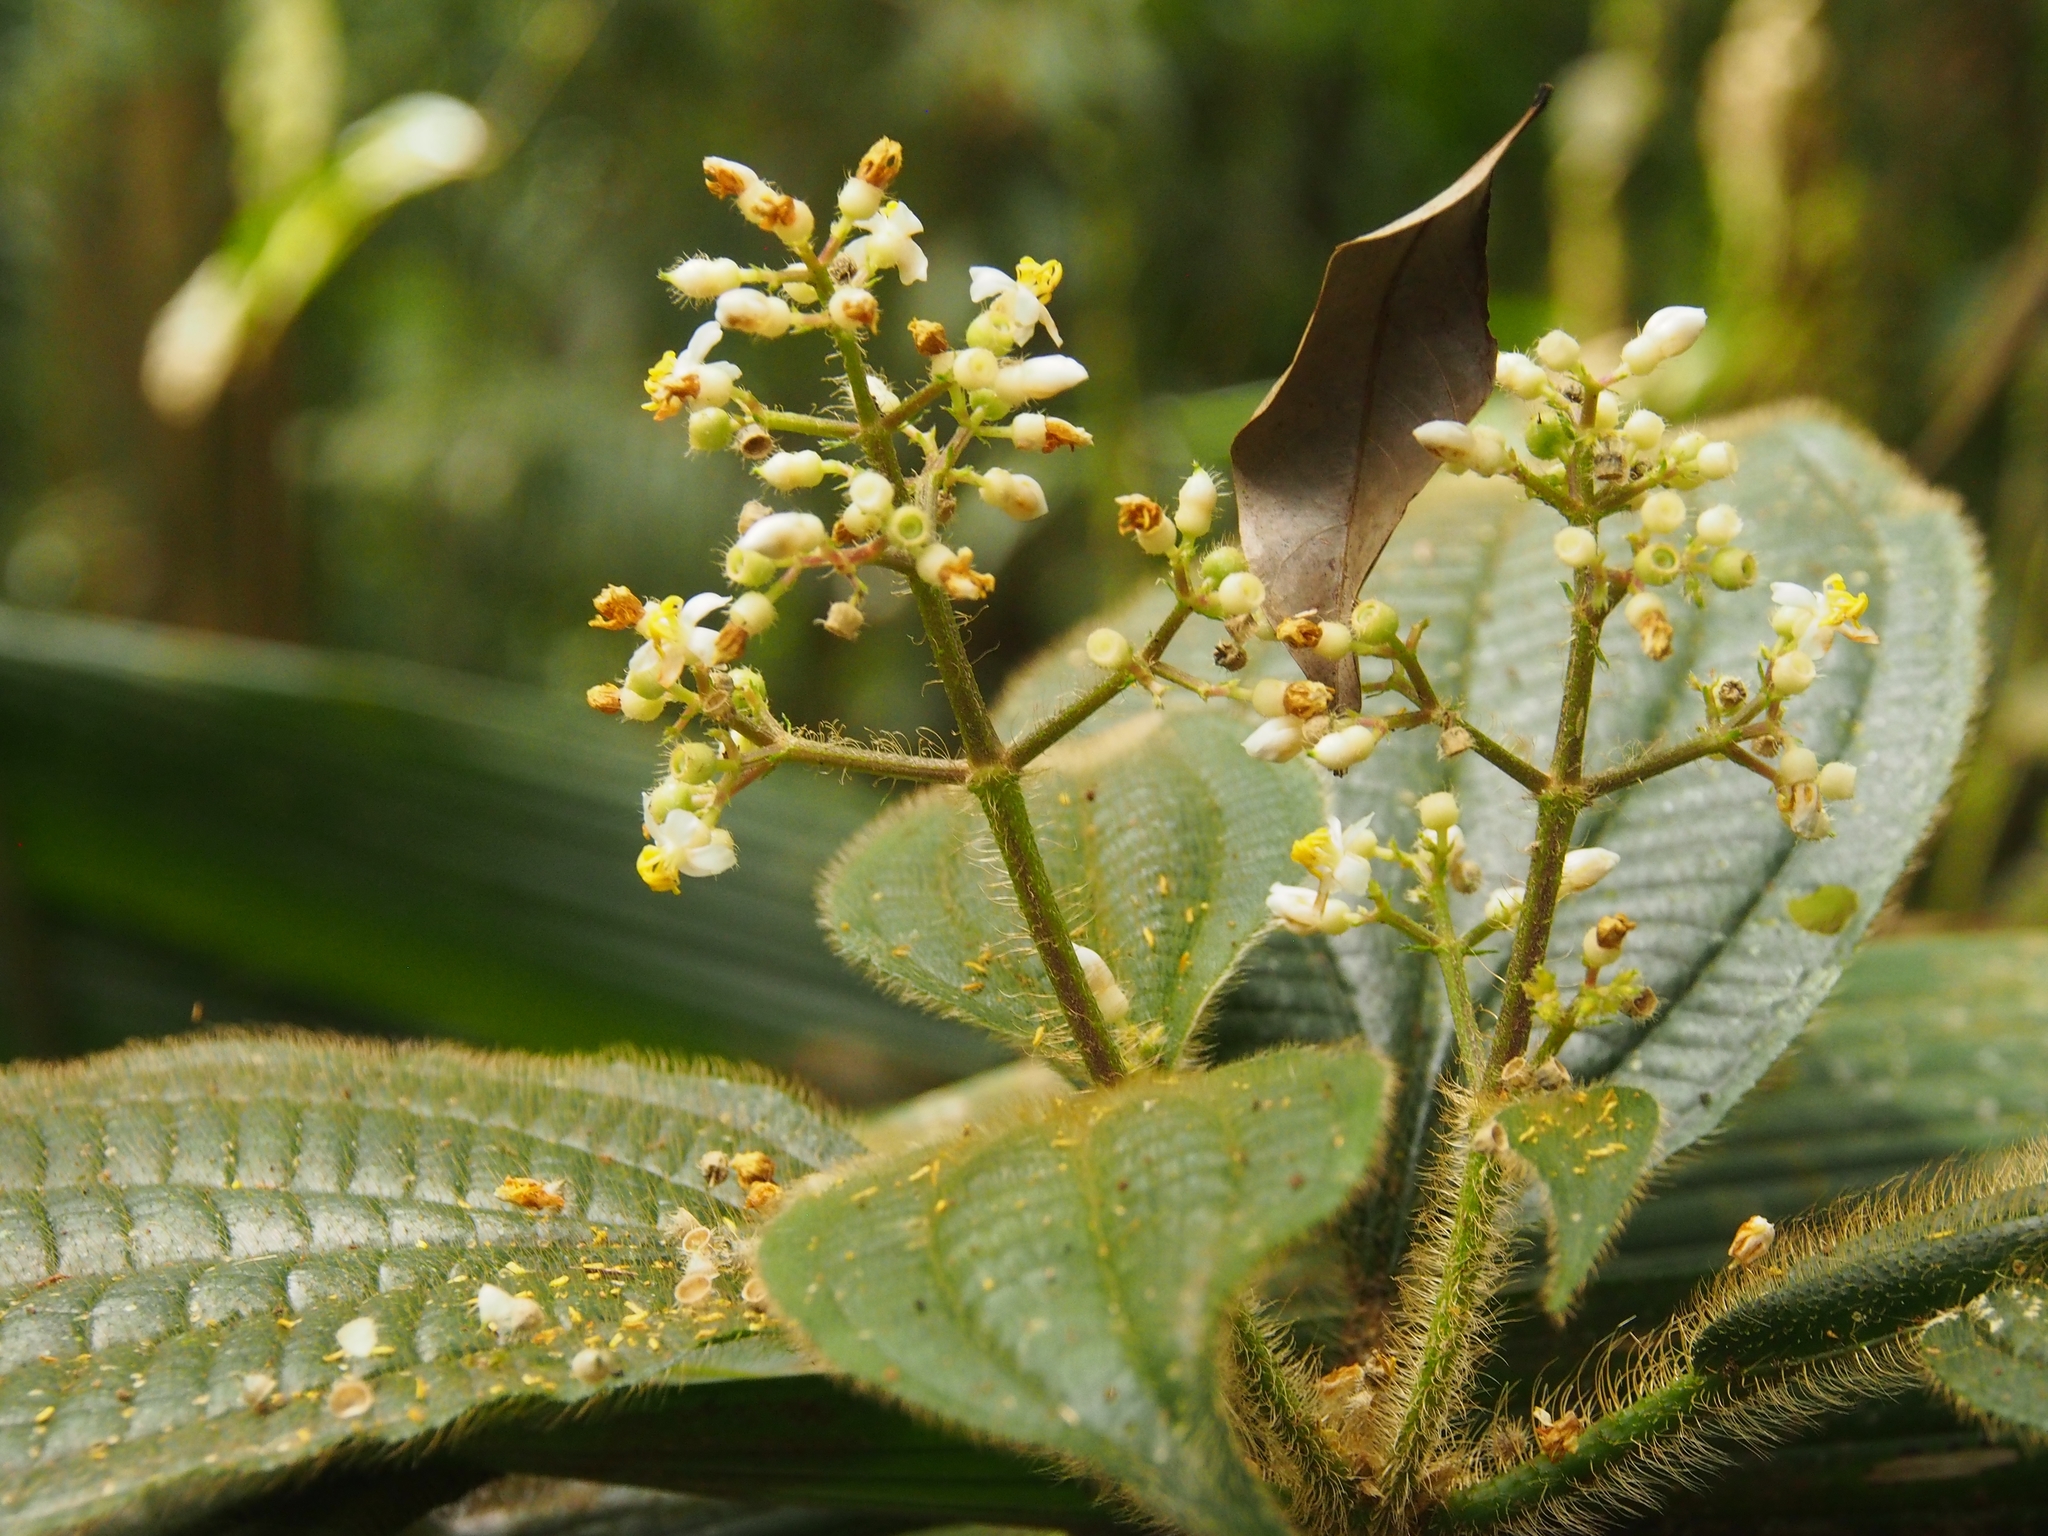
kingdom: Plantae
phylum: Tracheophyta
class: Magnoliopsida
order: Myrtales
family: Melastomataceae
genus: Miconia
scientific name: Miconia conosetosa
